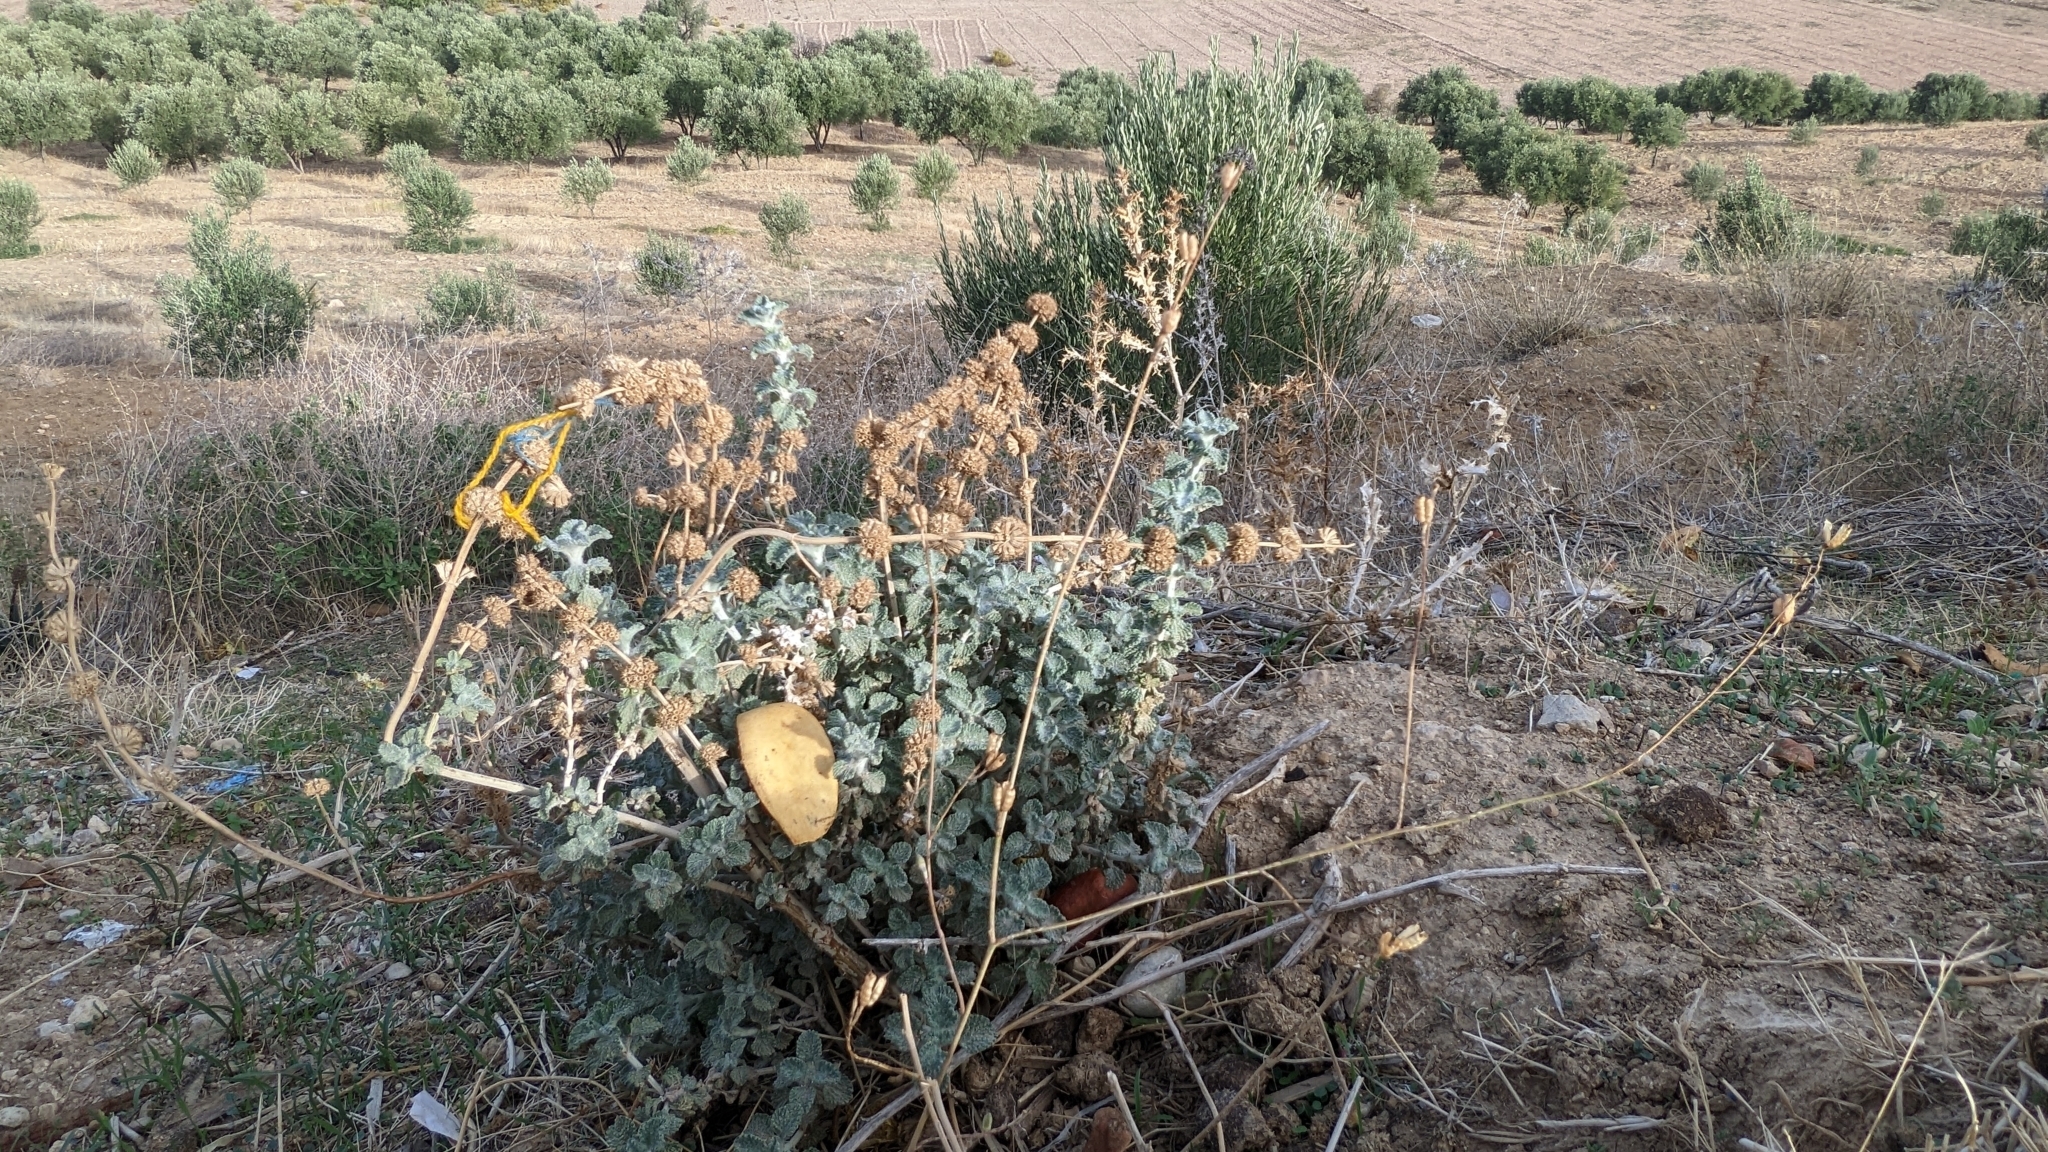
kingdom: Plantae
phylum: Tracheophyta
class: Magnoliopsida
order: Lamiales
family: Lamiaceae
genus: Marrubium
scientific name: Marrubium vulgare
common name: Horehound
